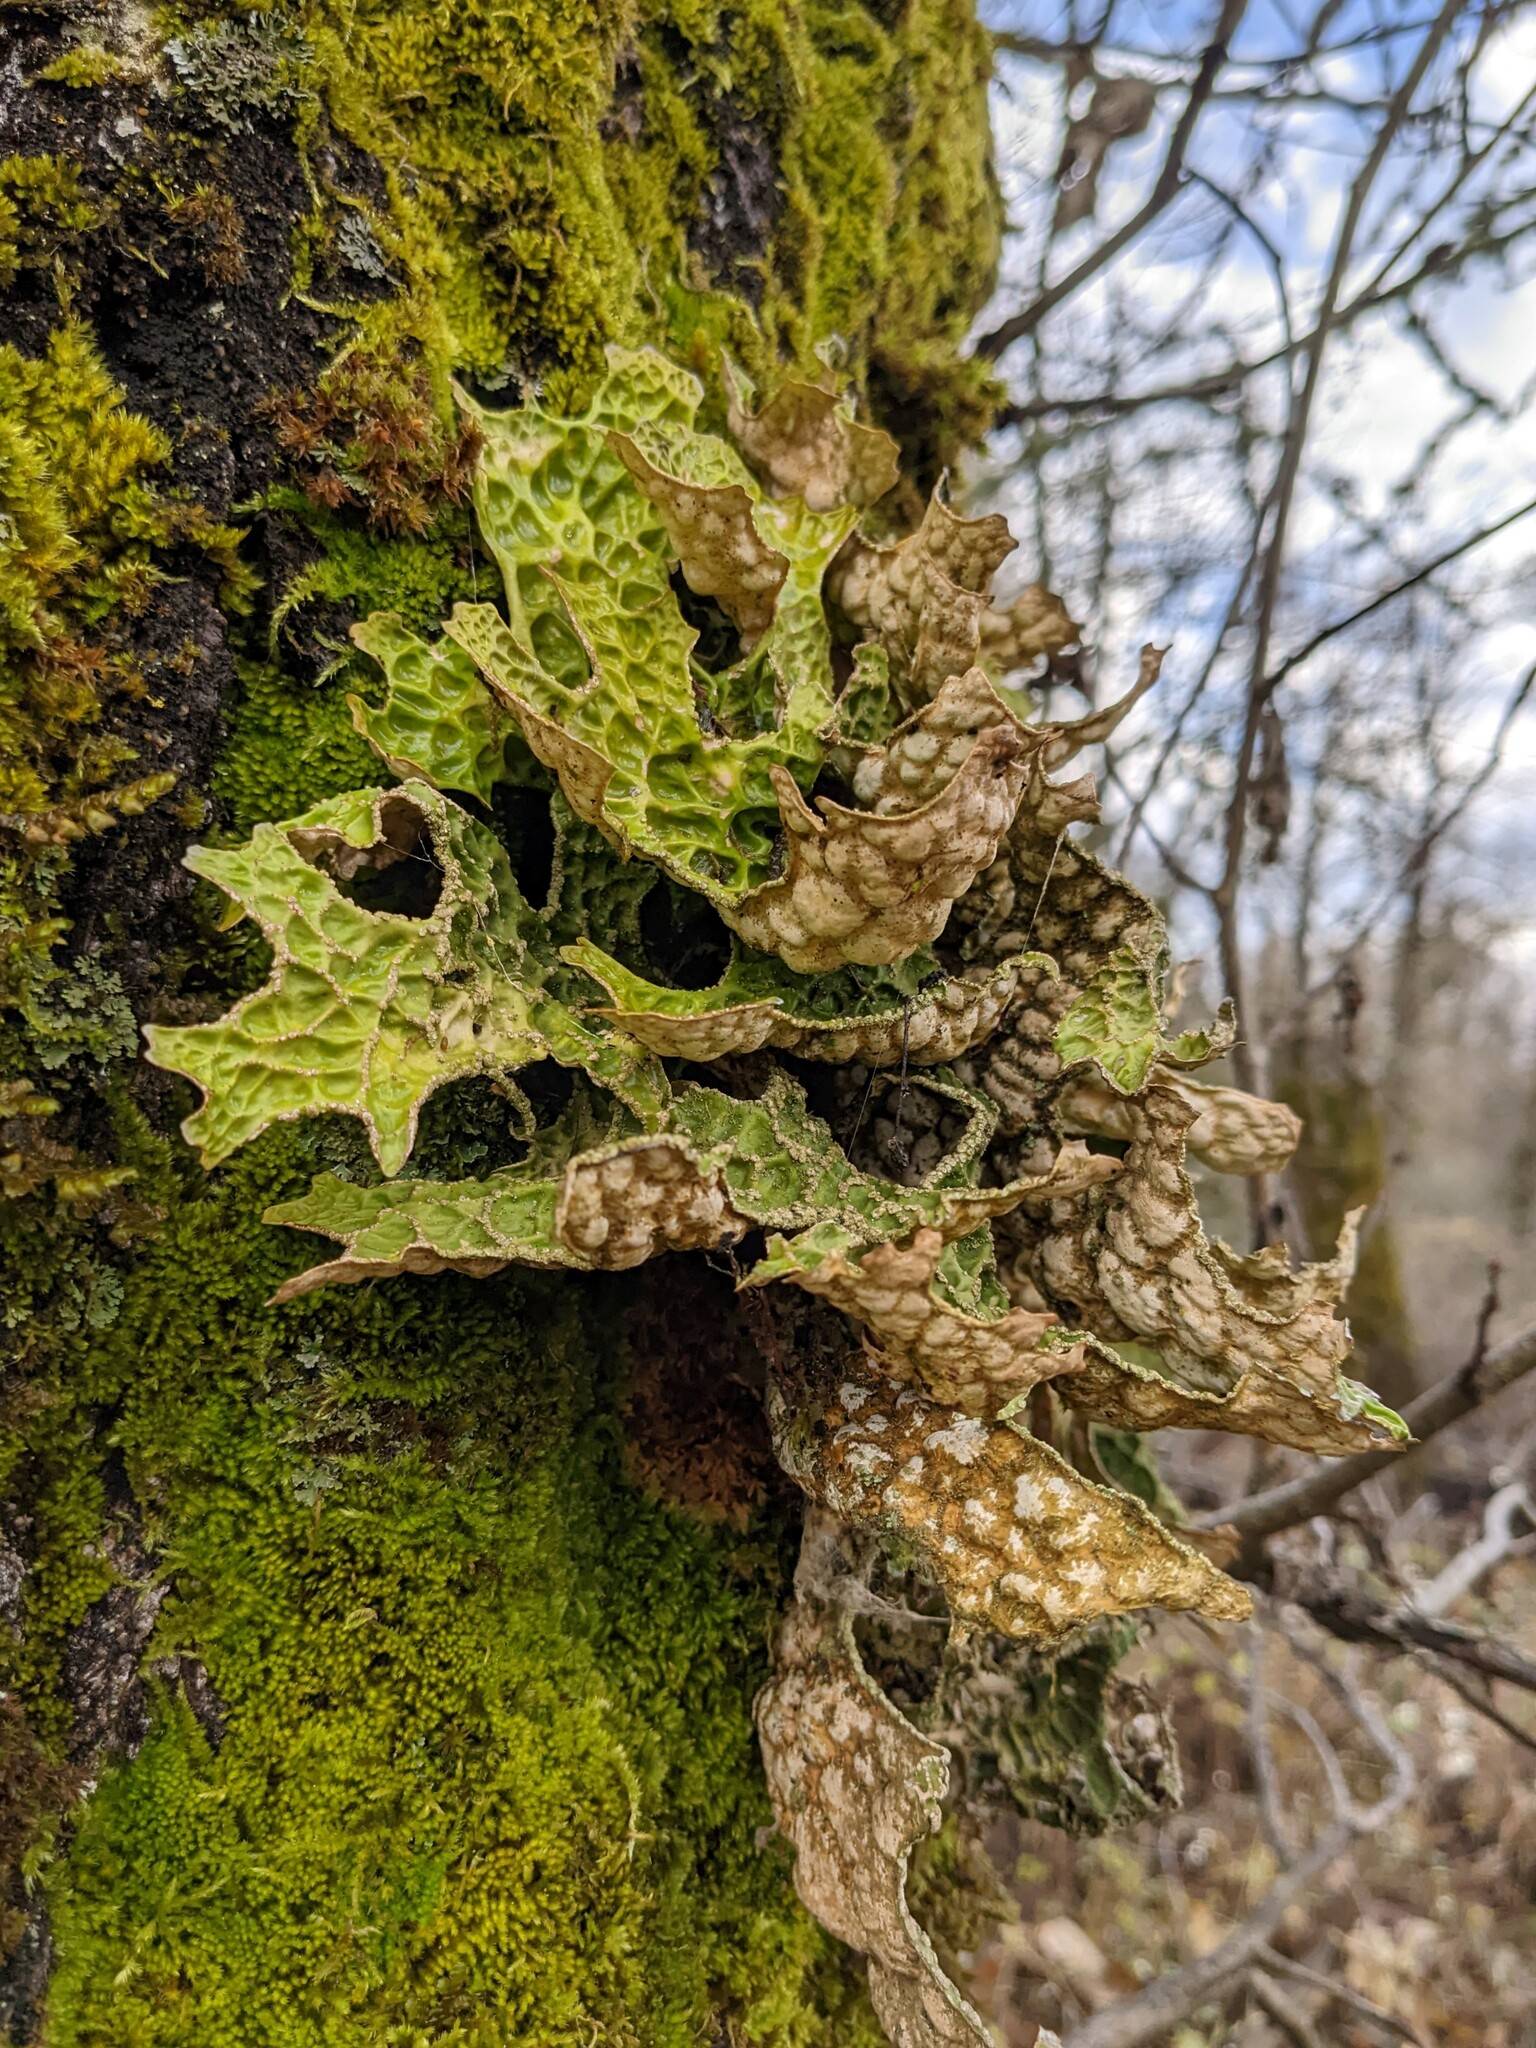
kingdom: Fungi
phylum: Ascomycota
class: Lecanoromycetes
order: Peltigerales
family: Lobariaceae
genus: Lobaria
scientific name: Lobaria pulmonaria
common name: Lungwort
